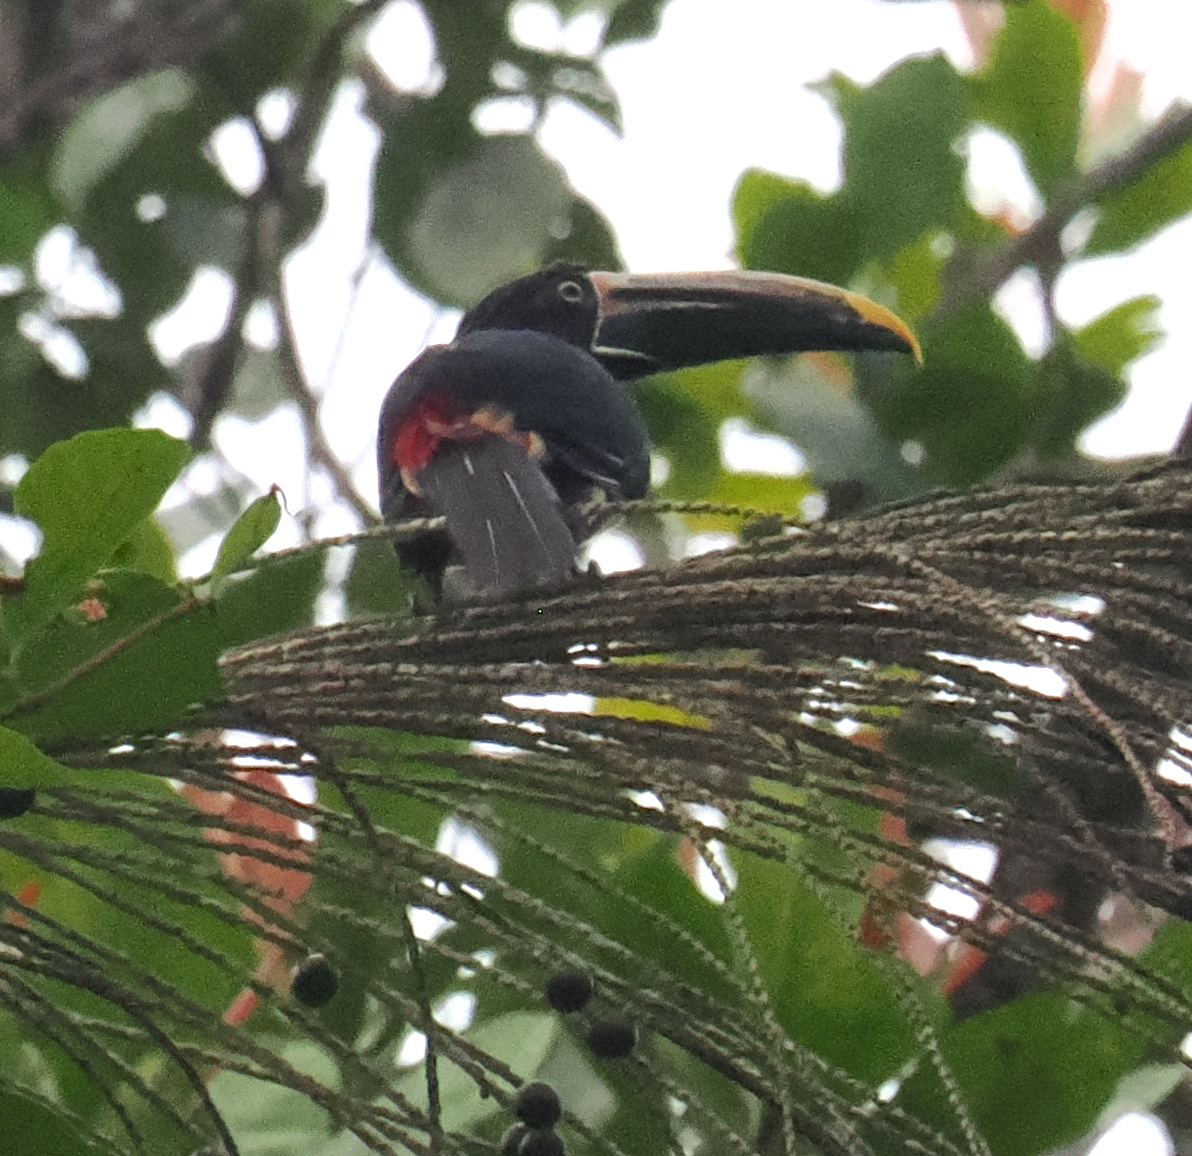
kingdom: Animalia
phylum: Chordata
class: Aves
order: Piciformes
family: Ramphastidae
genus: Pteroglossus
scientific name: Pteroglossus torquatus
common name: Collared aracari
